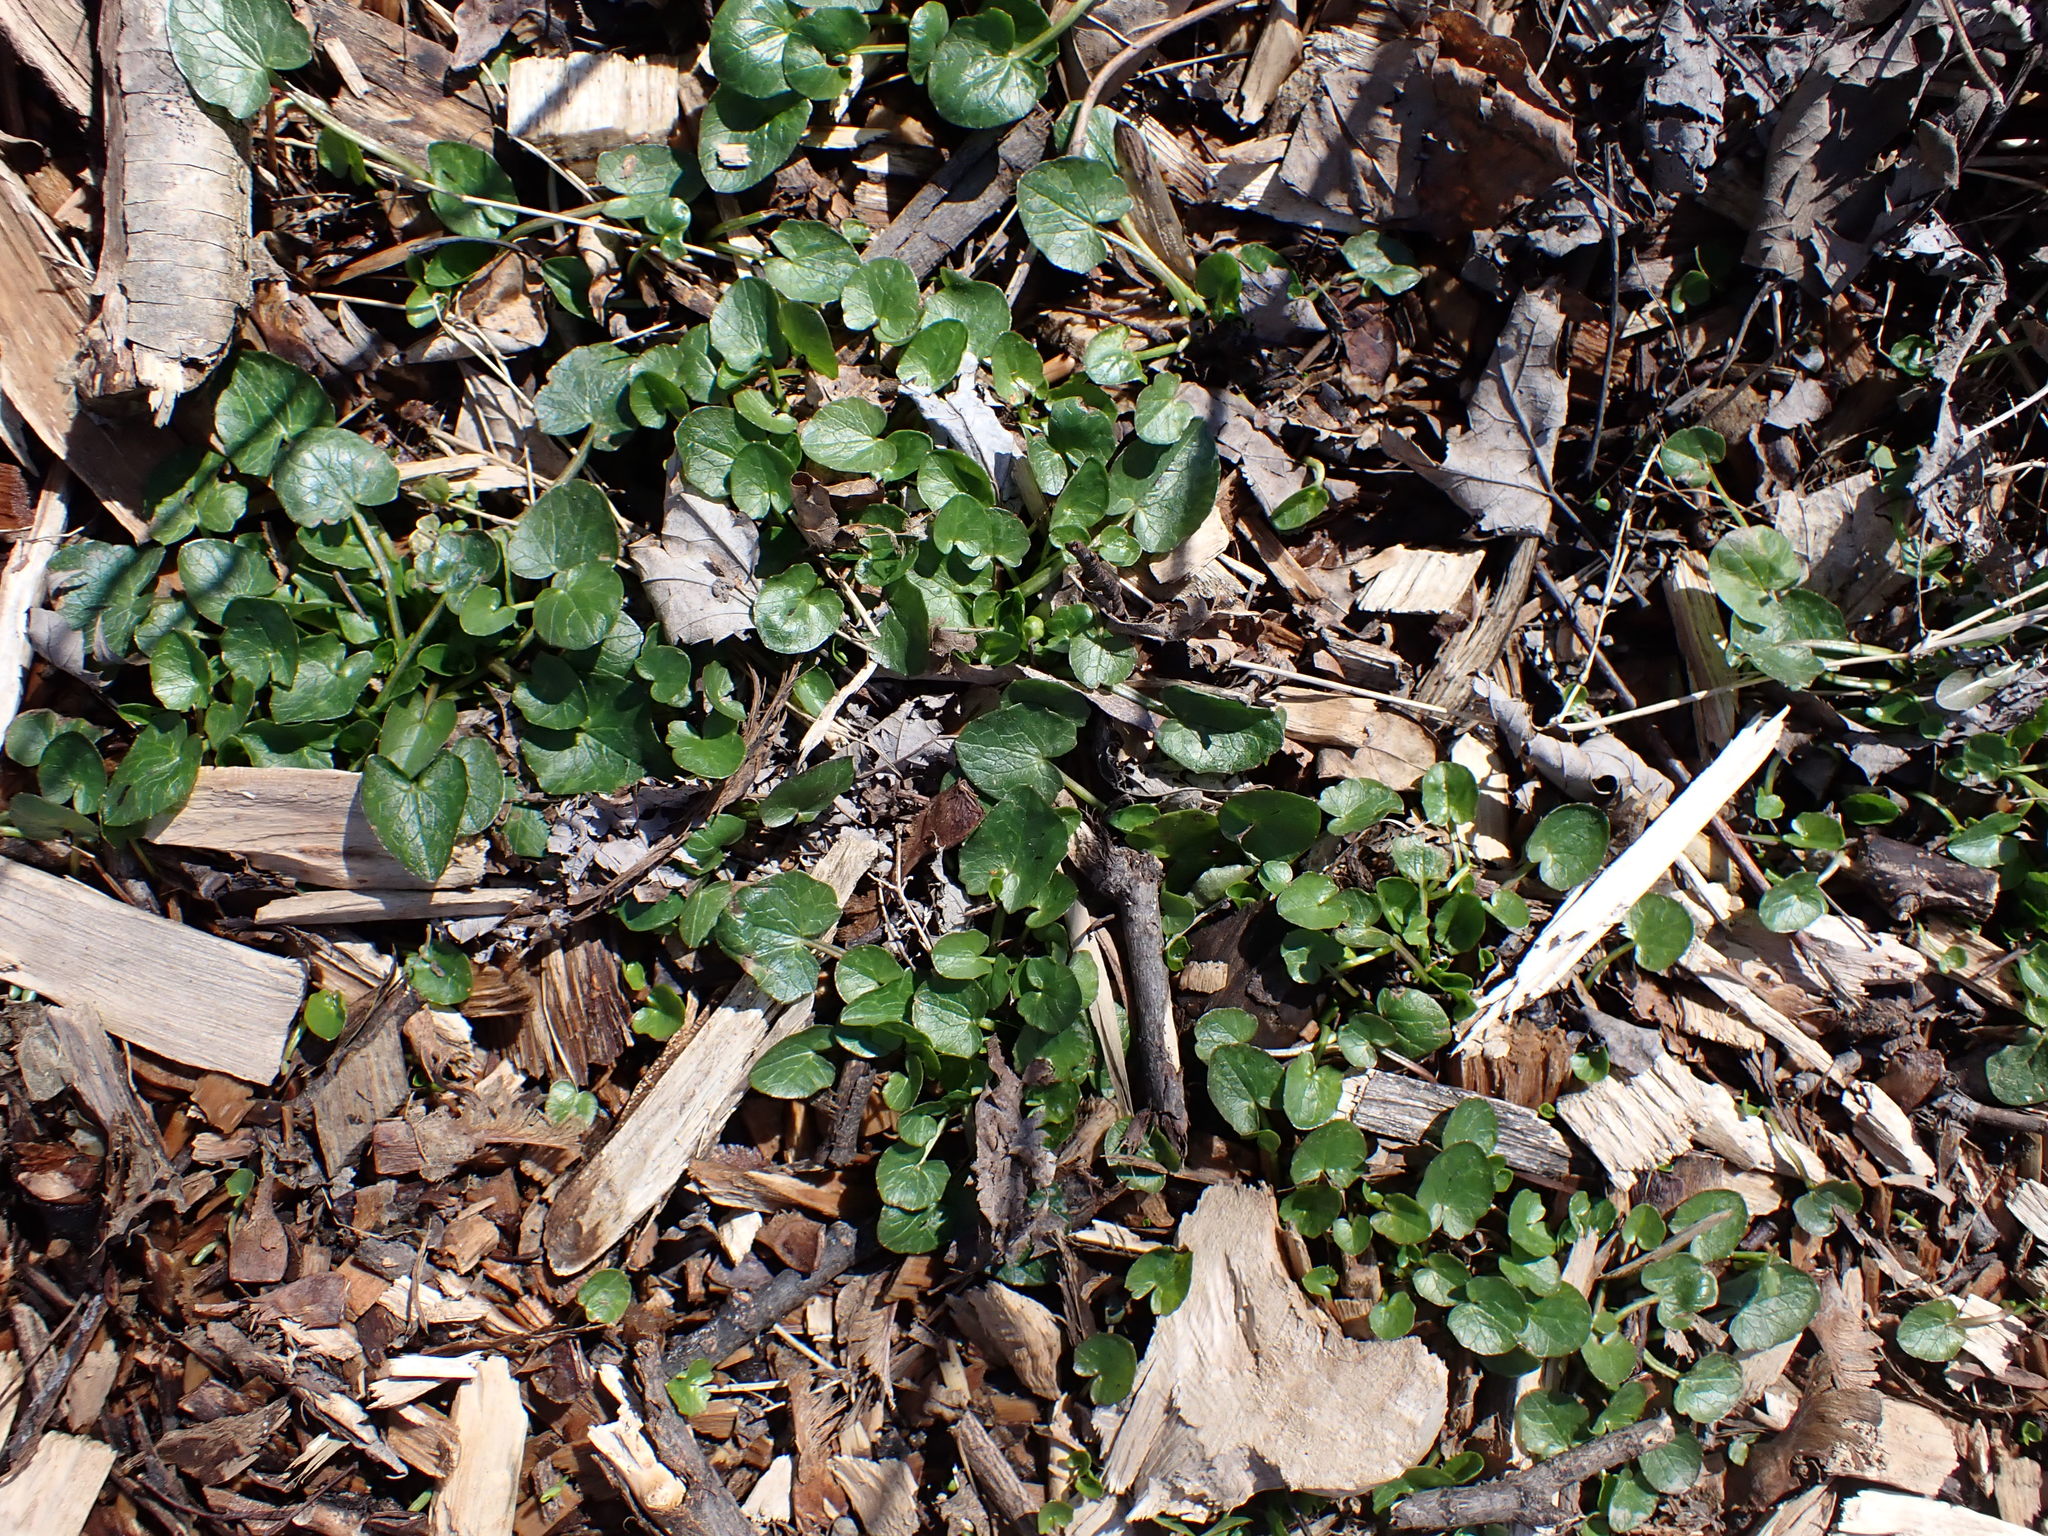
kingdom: Plantae
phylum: Tracheophyta
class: Magnoliopsida
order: Ranunculales
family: Ranunculaceae
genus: Ficaria
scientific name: Ficaria verna
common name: Lesser celandine
